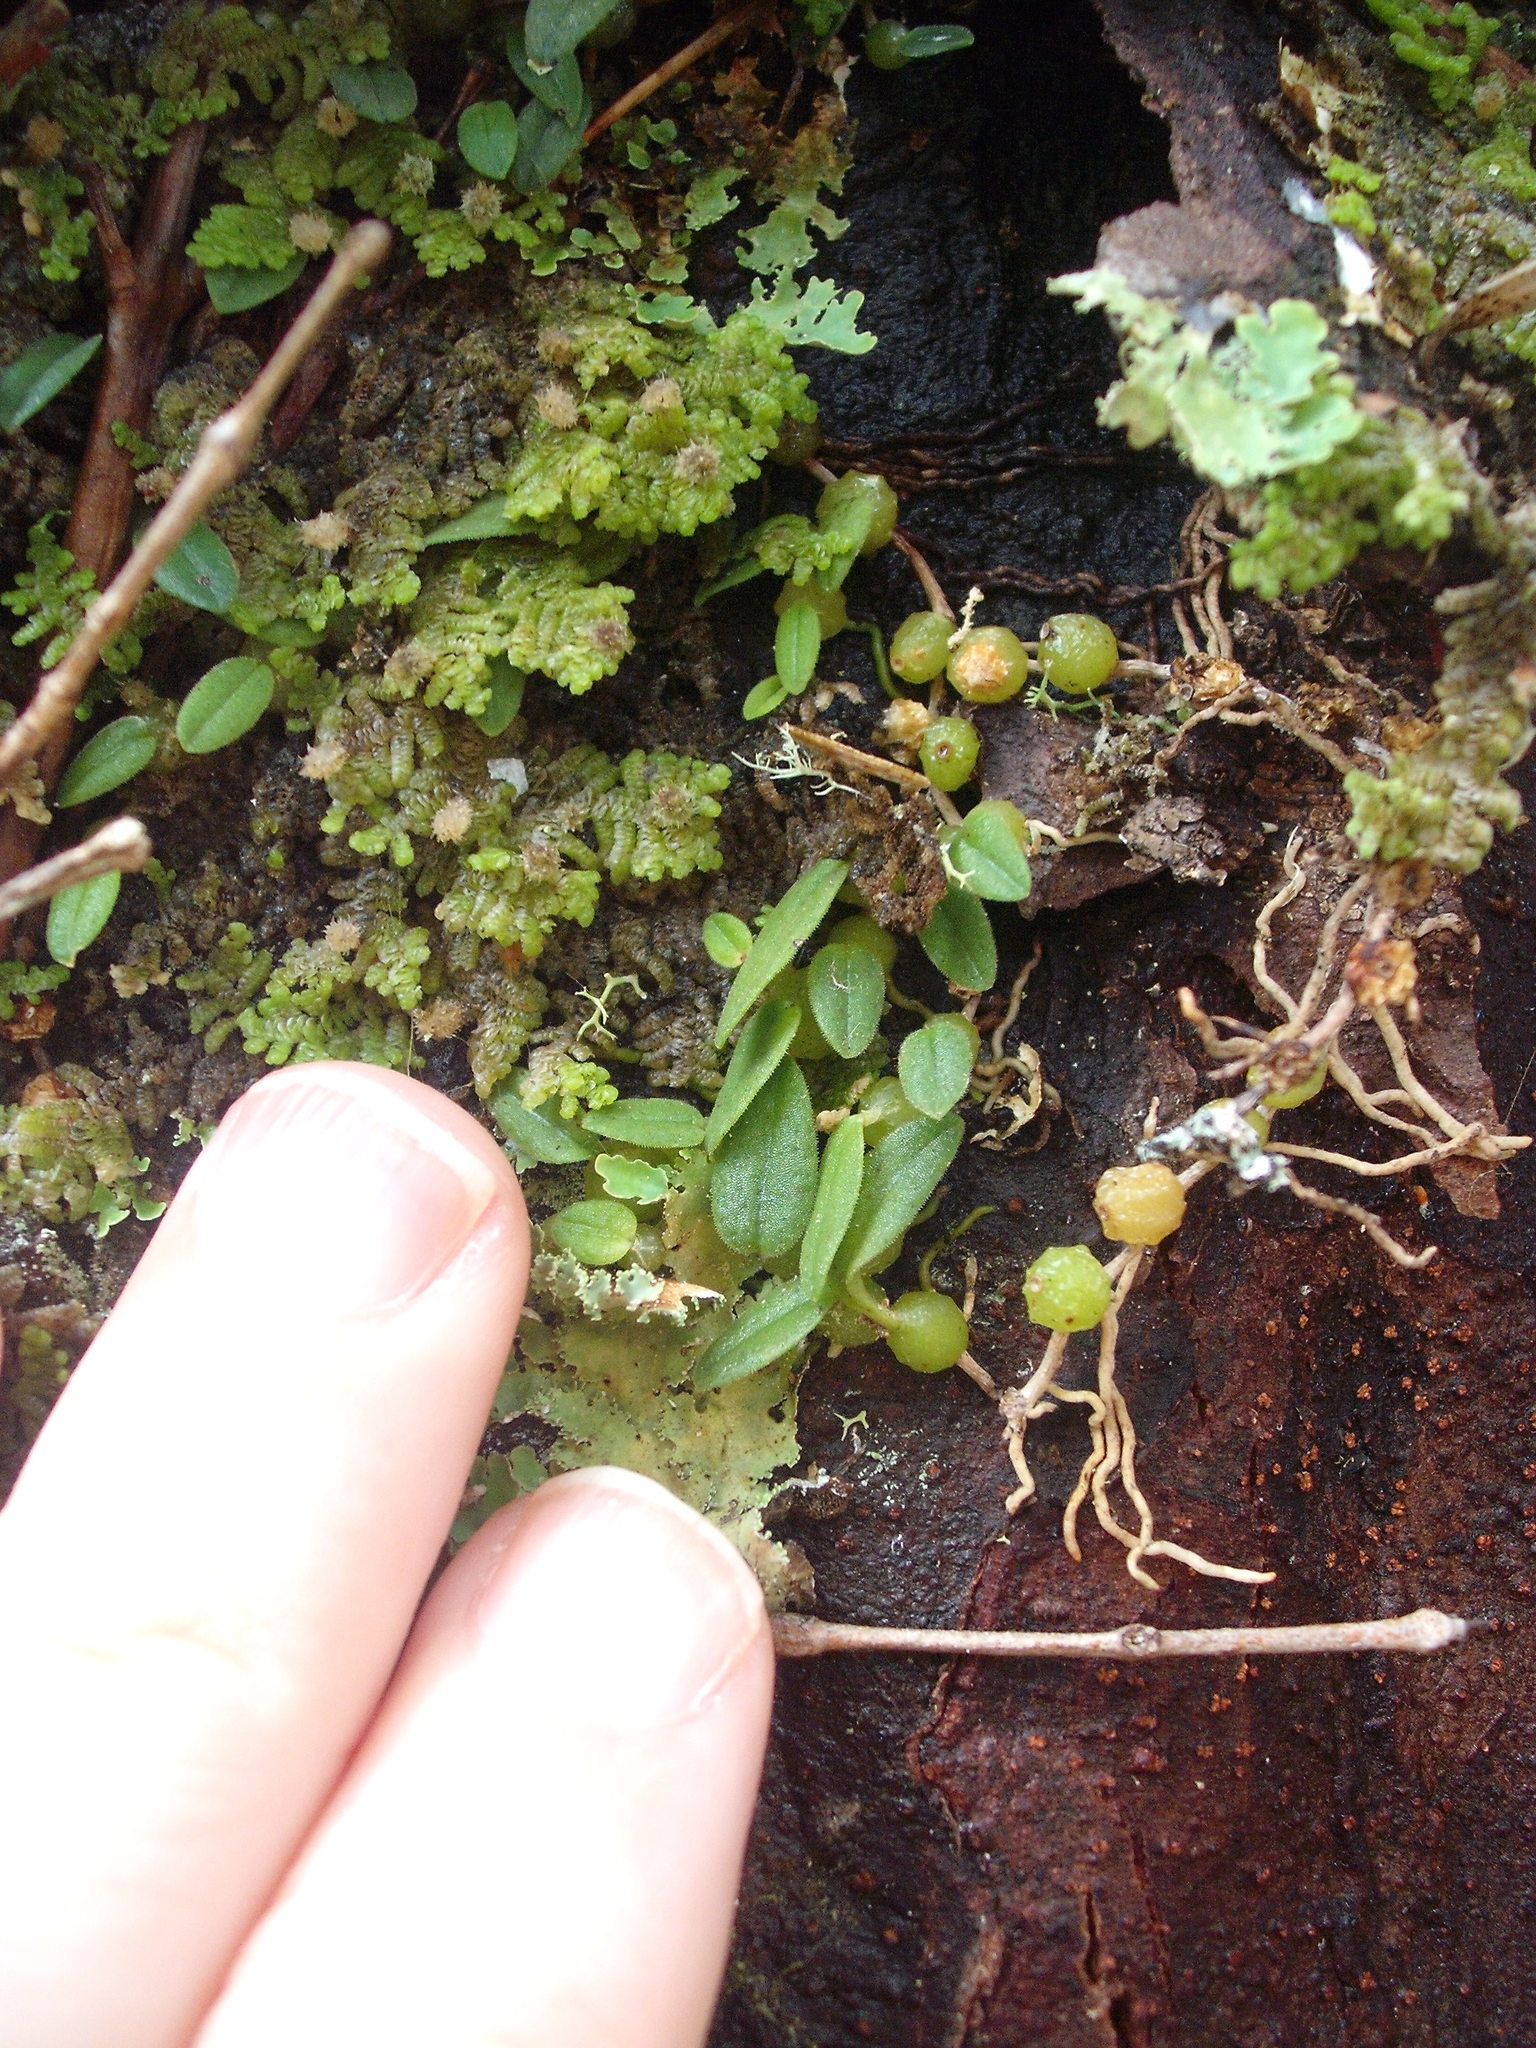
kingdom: Plantae
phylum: Tracheophyta
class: Liliopsida
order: Asparagales
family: Orchidaceae
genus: Bulbophyllum
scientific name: Bulbophyllum pygmaeum
